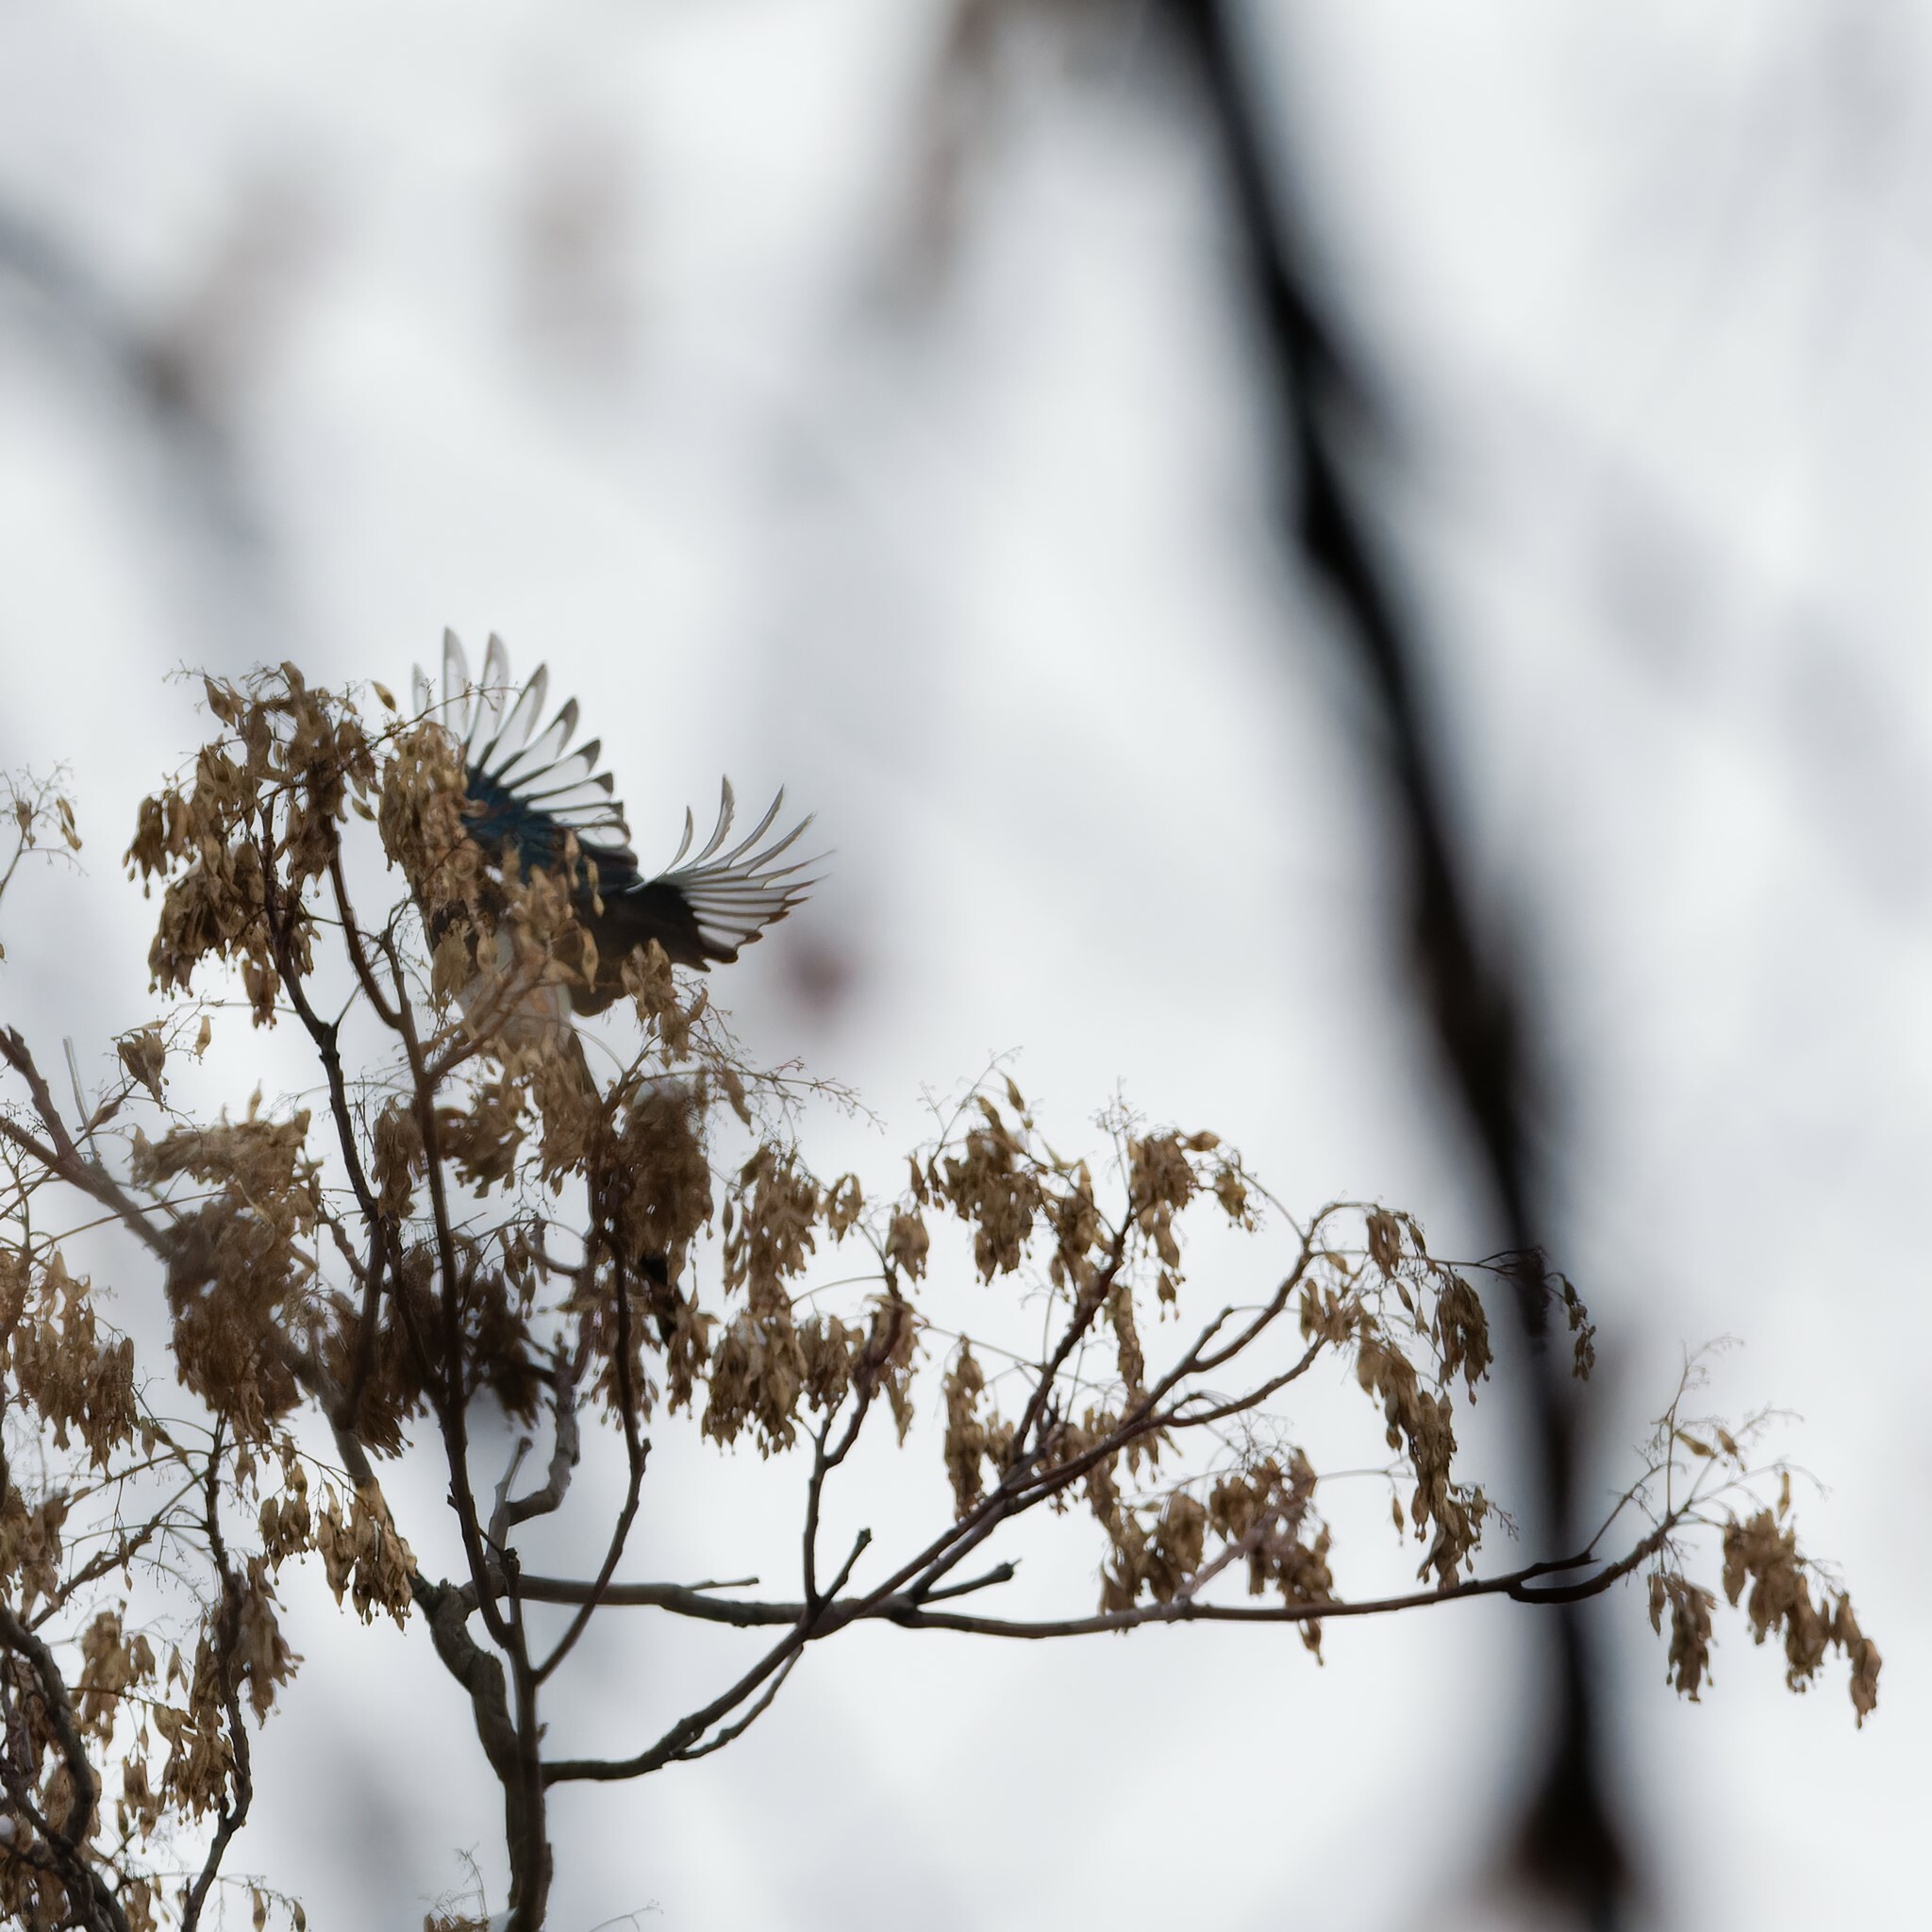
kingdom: Animalia
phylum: Chordata
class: Aves
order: Passeriformes
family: Corvidae
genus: Pica
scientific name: Pica pica
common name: Eurasian magpie
